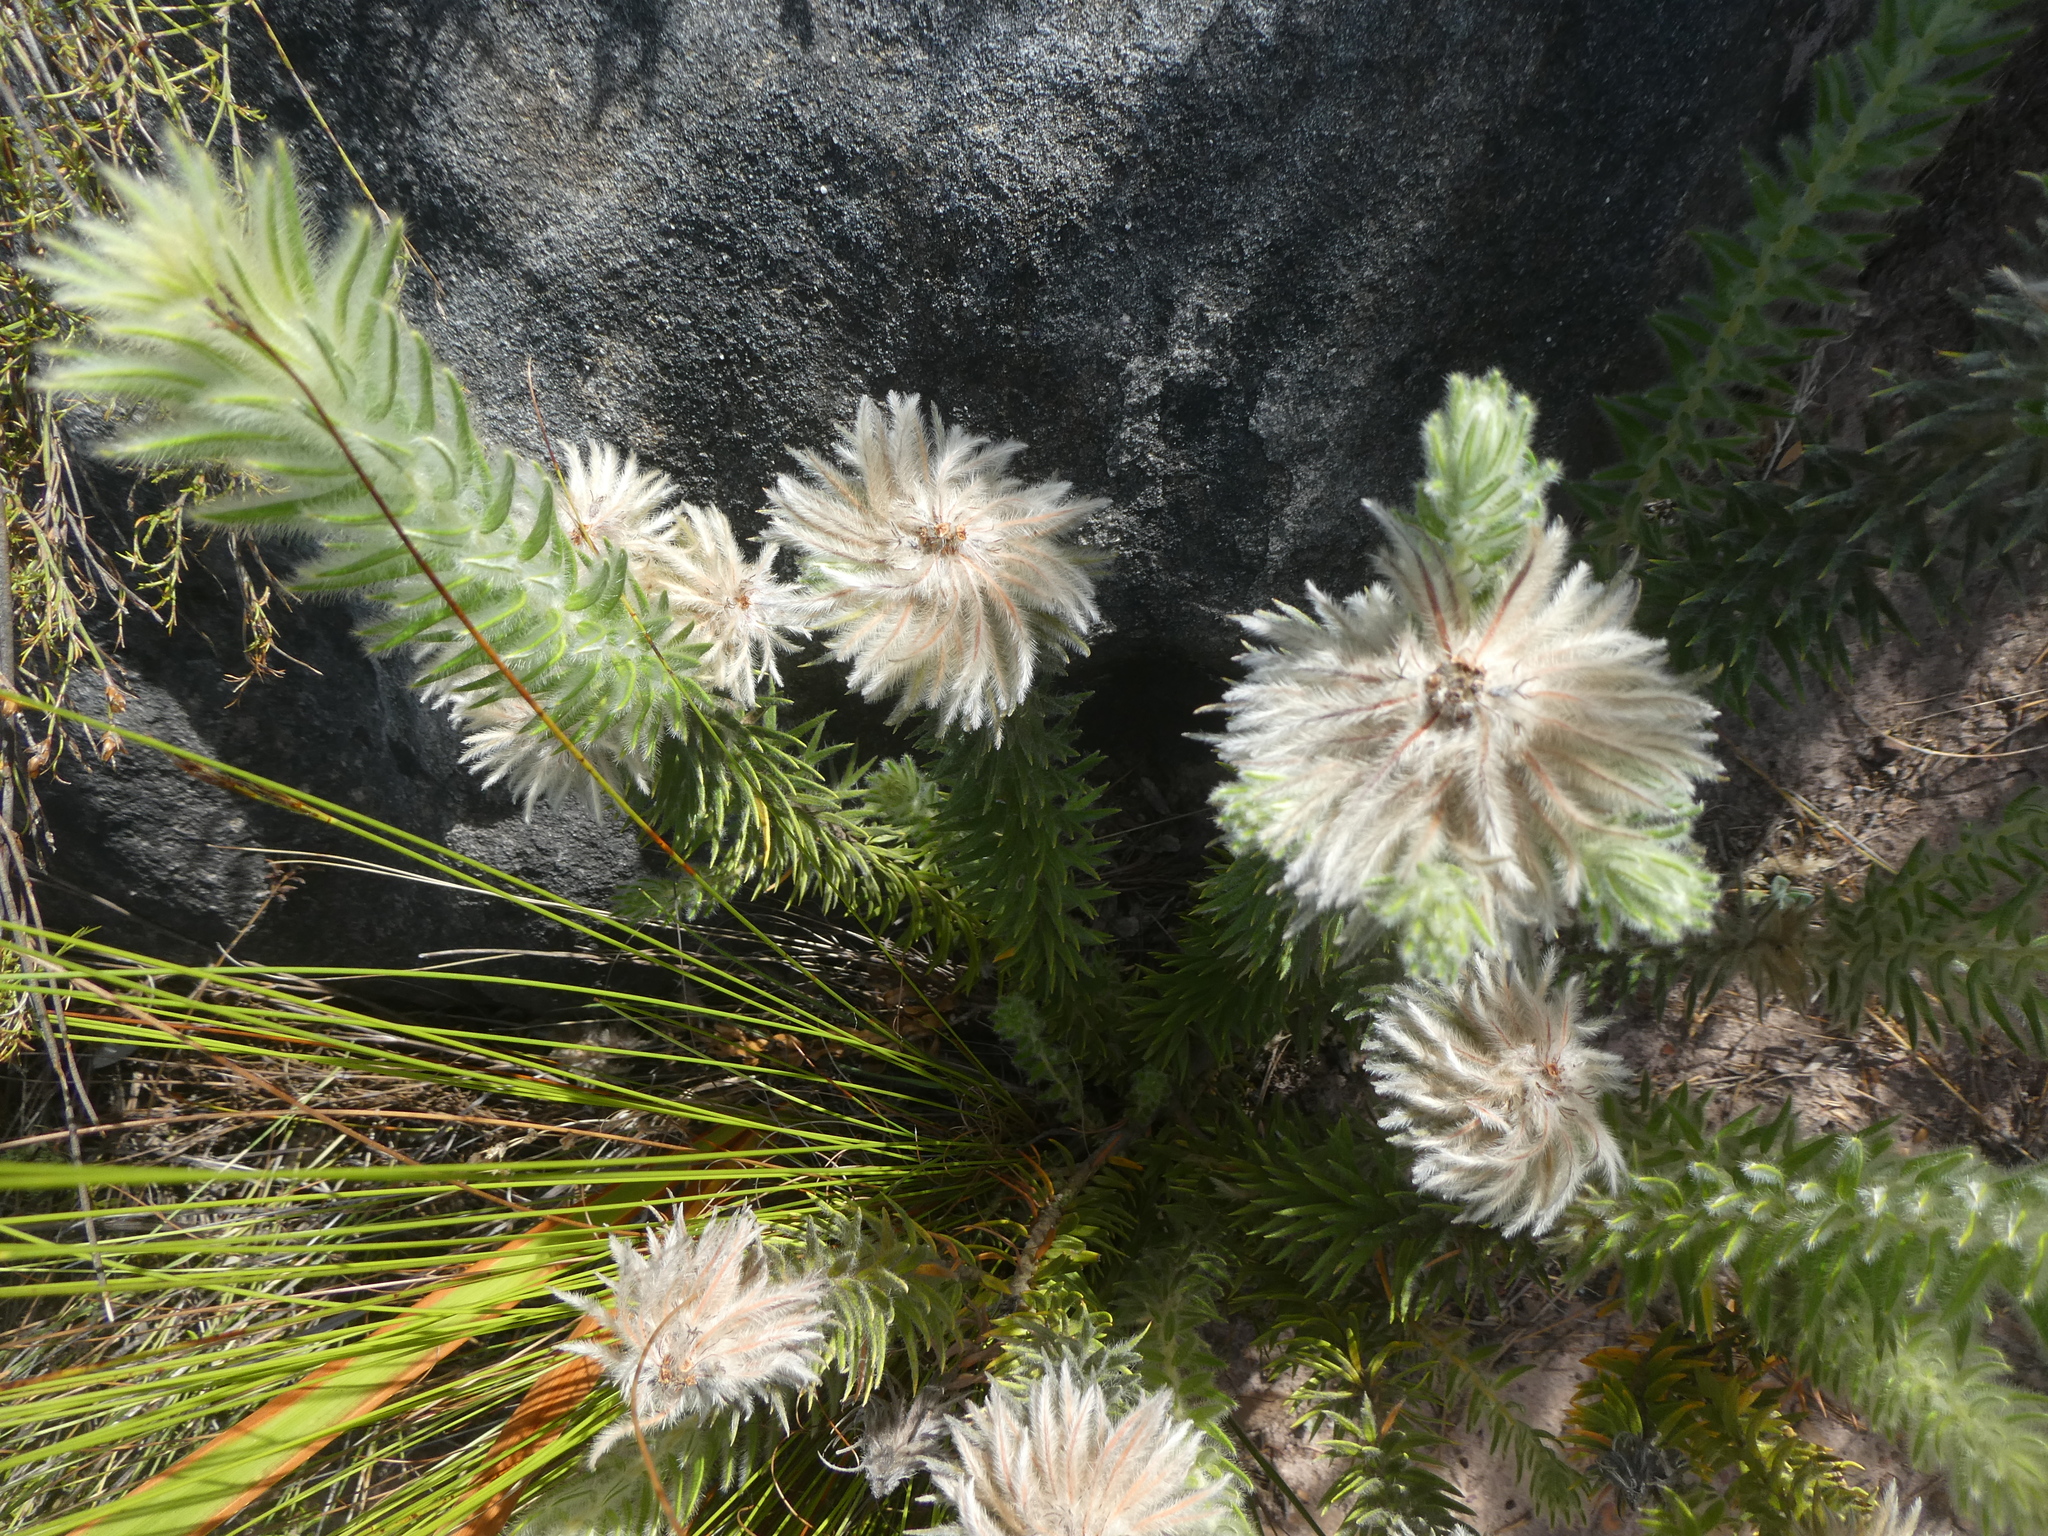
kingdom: Plantae
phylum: Tracheophyta
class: Magnoliopsida
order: Rosales
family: Rhamnaceae
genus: Phylica
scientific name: Phylica pubescens
